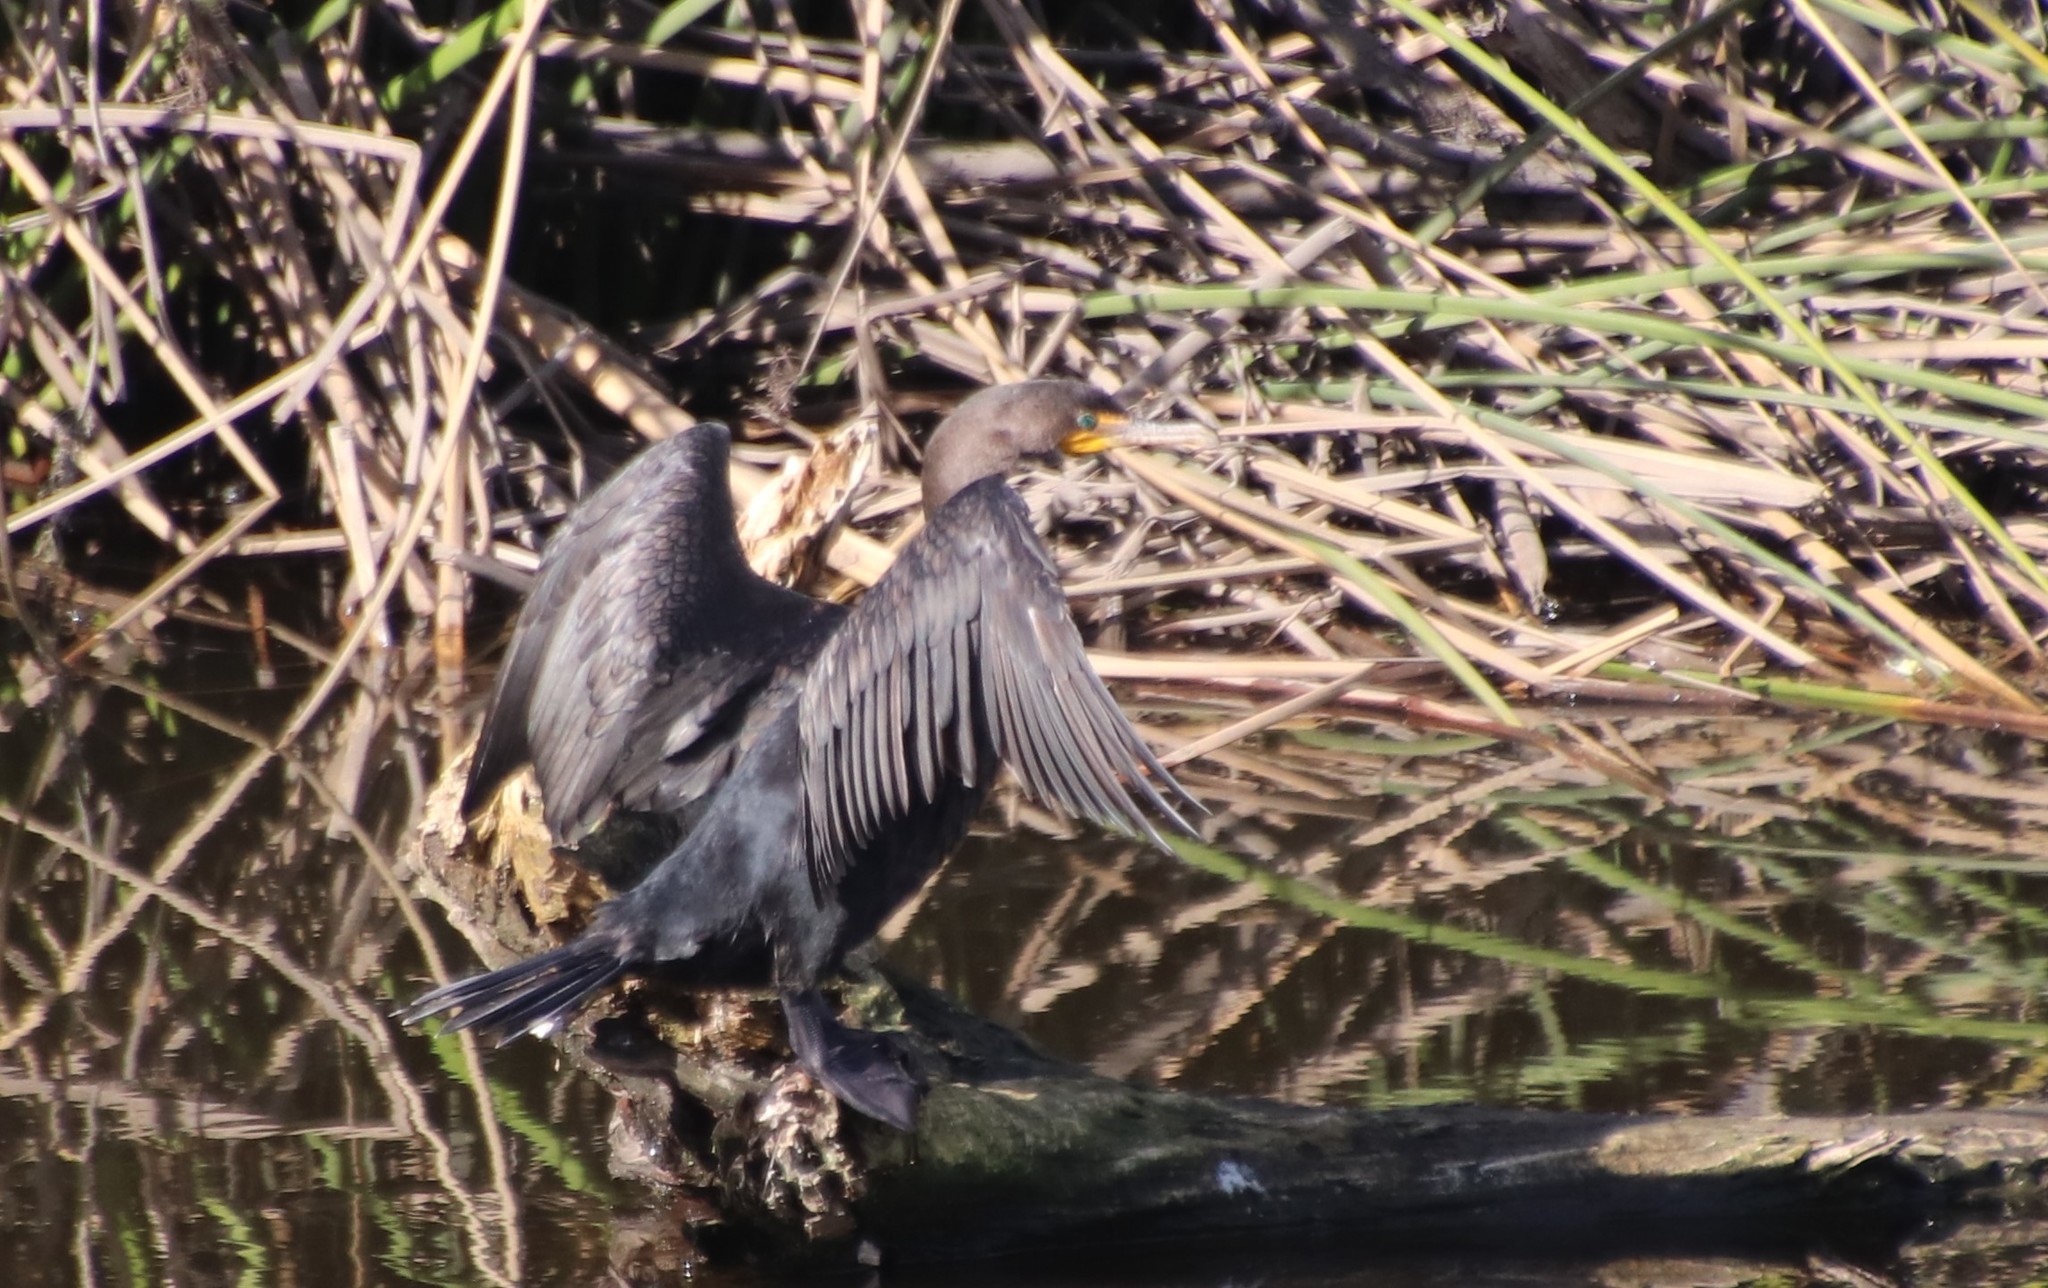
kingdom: Animalia
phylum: Chordata
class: Aves
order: Suliformes
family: Phalacrocoracidae
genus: Phalacrocorax
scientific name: Phalacrocorax auritus
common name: Double-crested cormorant
